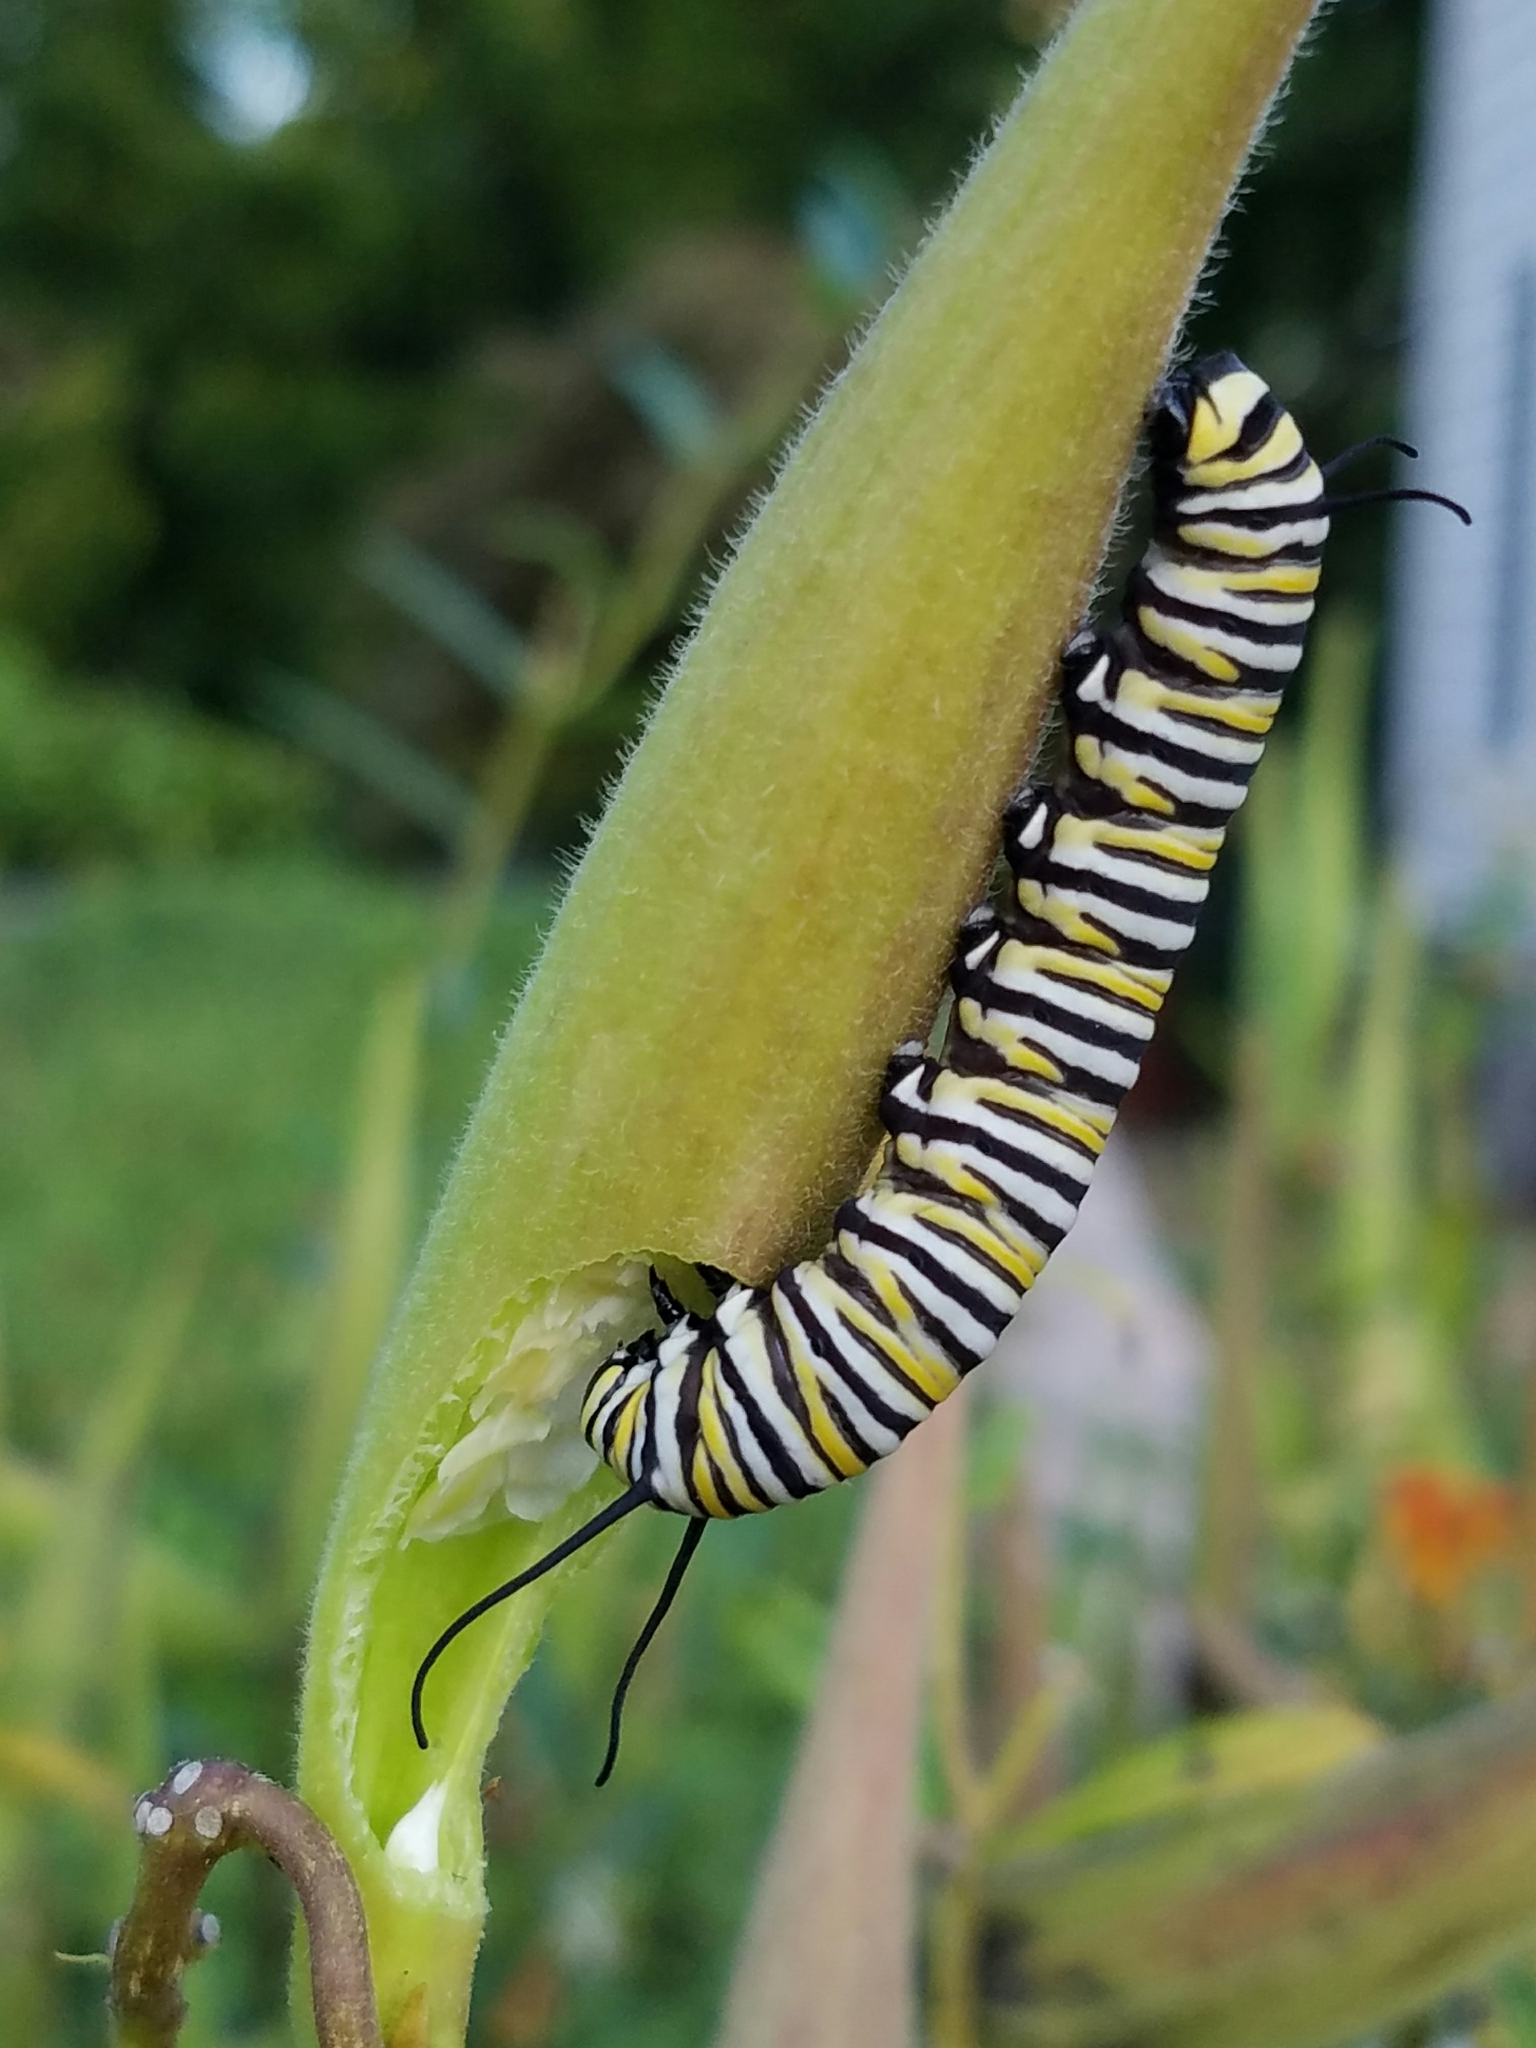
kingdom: Animalia
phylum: Arthropoda
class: Insecta
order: Lepidoptera
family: Nymphalidae
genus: Danaus
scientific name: Danaus plexippus
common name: Monarch
